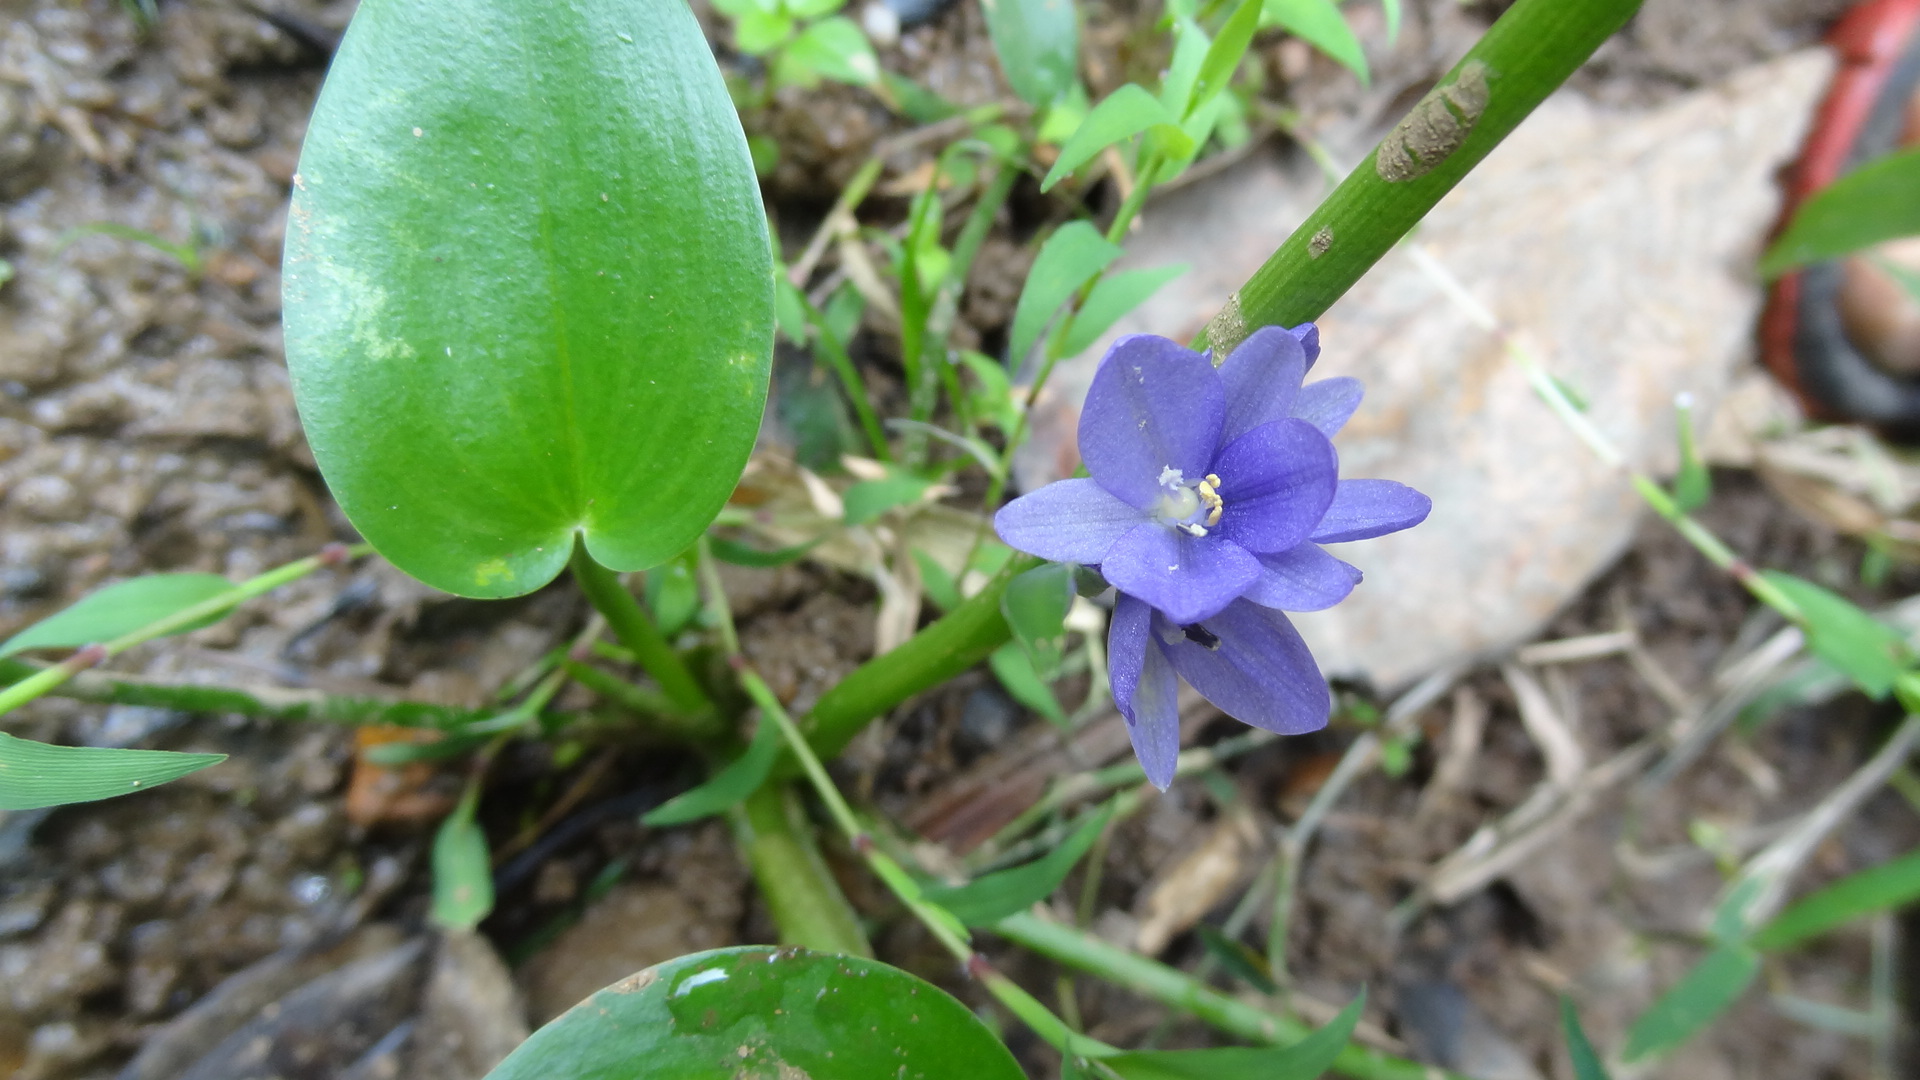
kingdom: Plantae
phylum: Tracheophyta
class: Liliopsida
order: Commelinales
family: Pontederiaceae
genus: Pontederia
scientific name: Pontederia vaginalis
